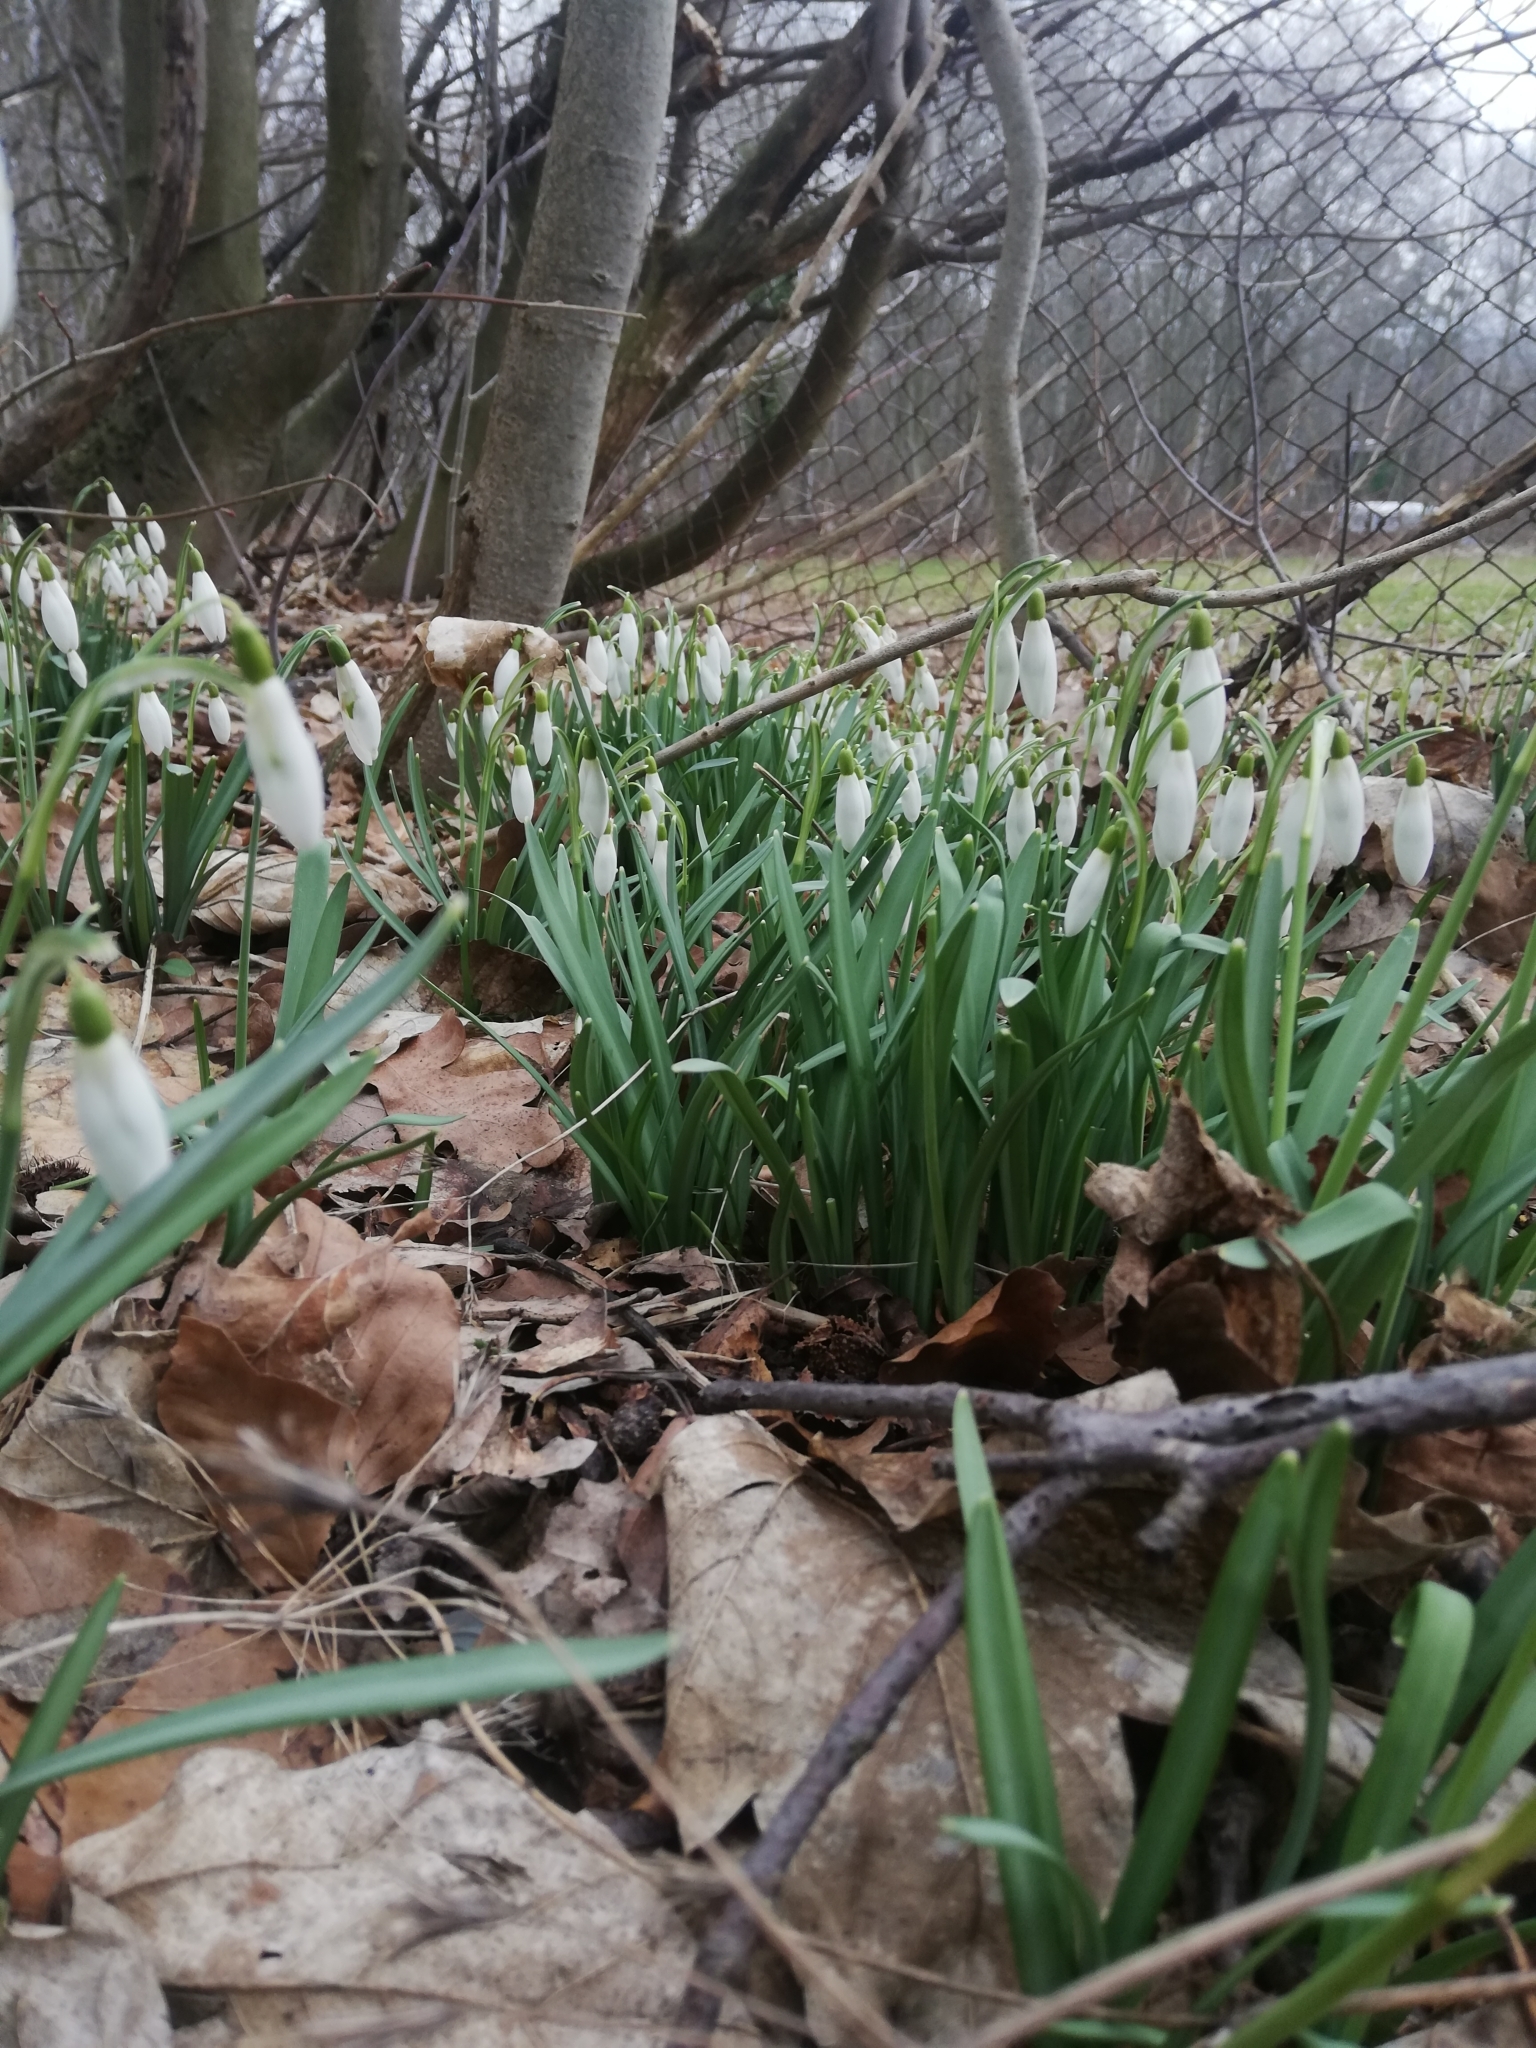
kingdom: Plantae
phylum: Tracheophyta
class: Liliopsida
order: Asparagales
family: Amaryllidaceae
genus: Galanthus
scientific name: Galanthus nivalis
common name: Snowdrop
